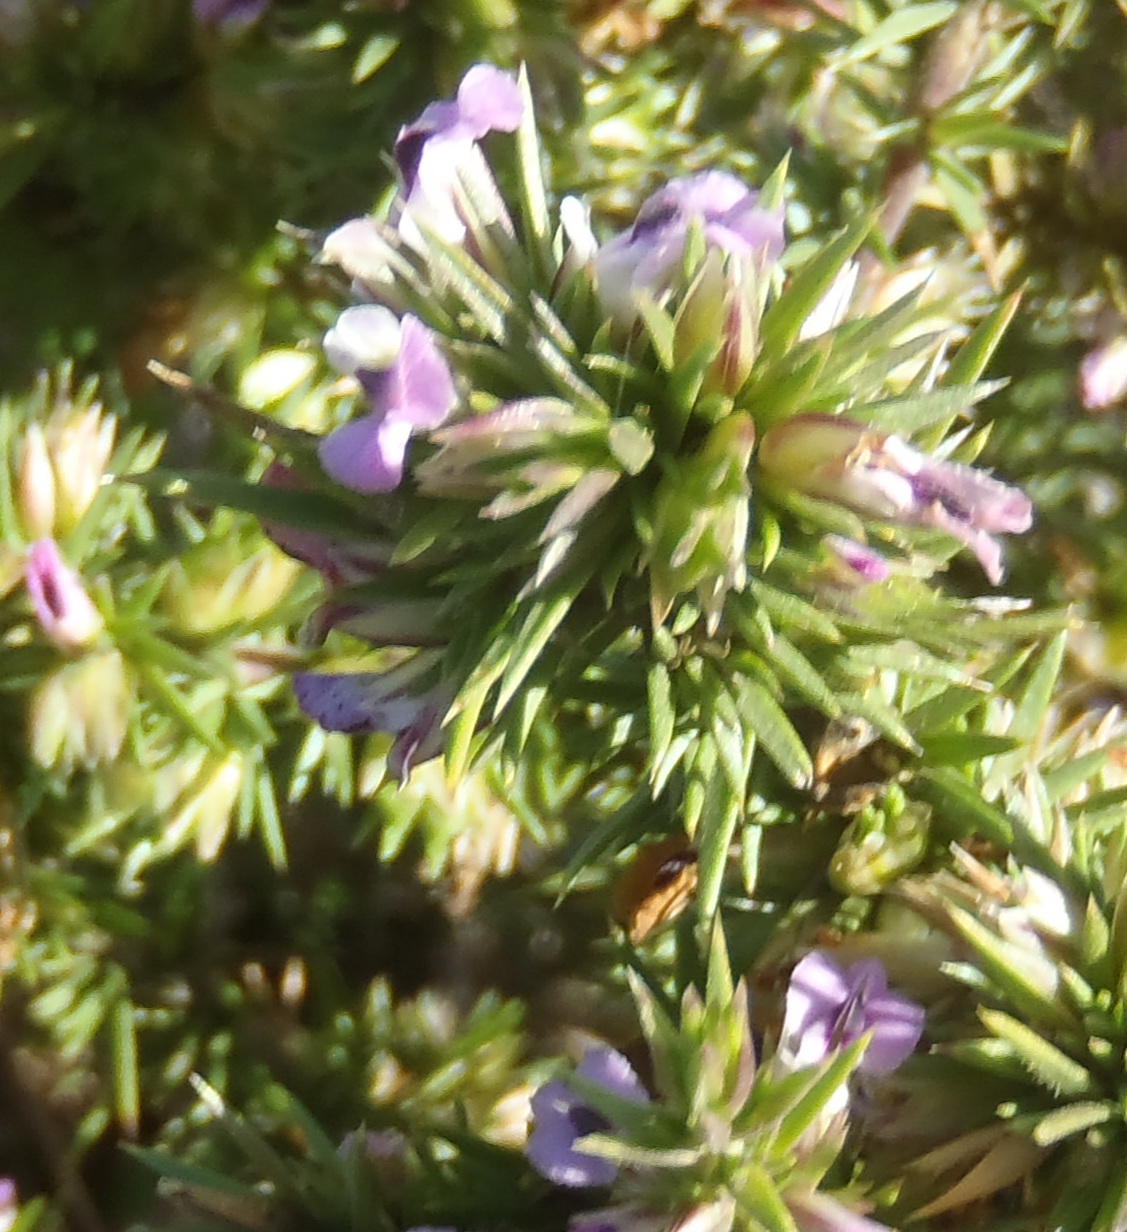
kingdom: Plantae
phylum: Tracheophyta
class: Magnoliopsida
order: Fabales
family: Polygalaceae
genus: Muraltia
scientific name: Muraltia ericifolia
